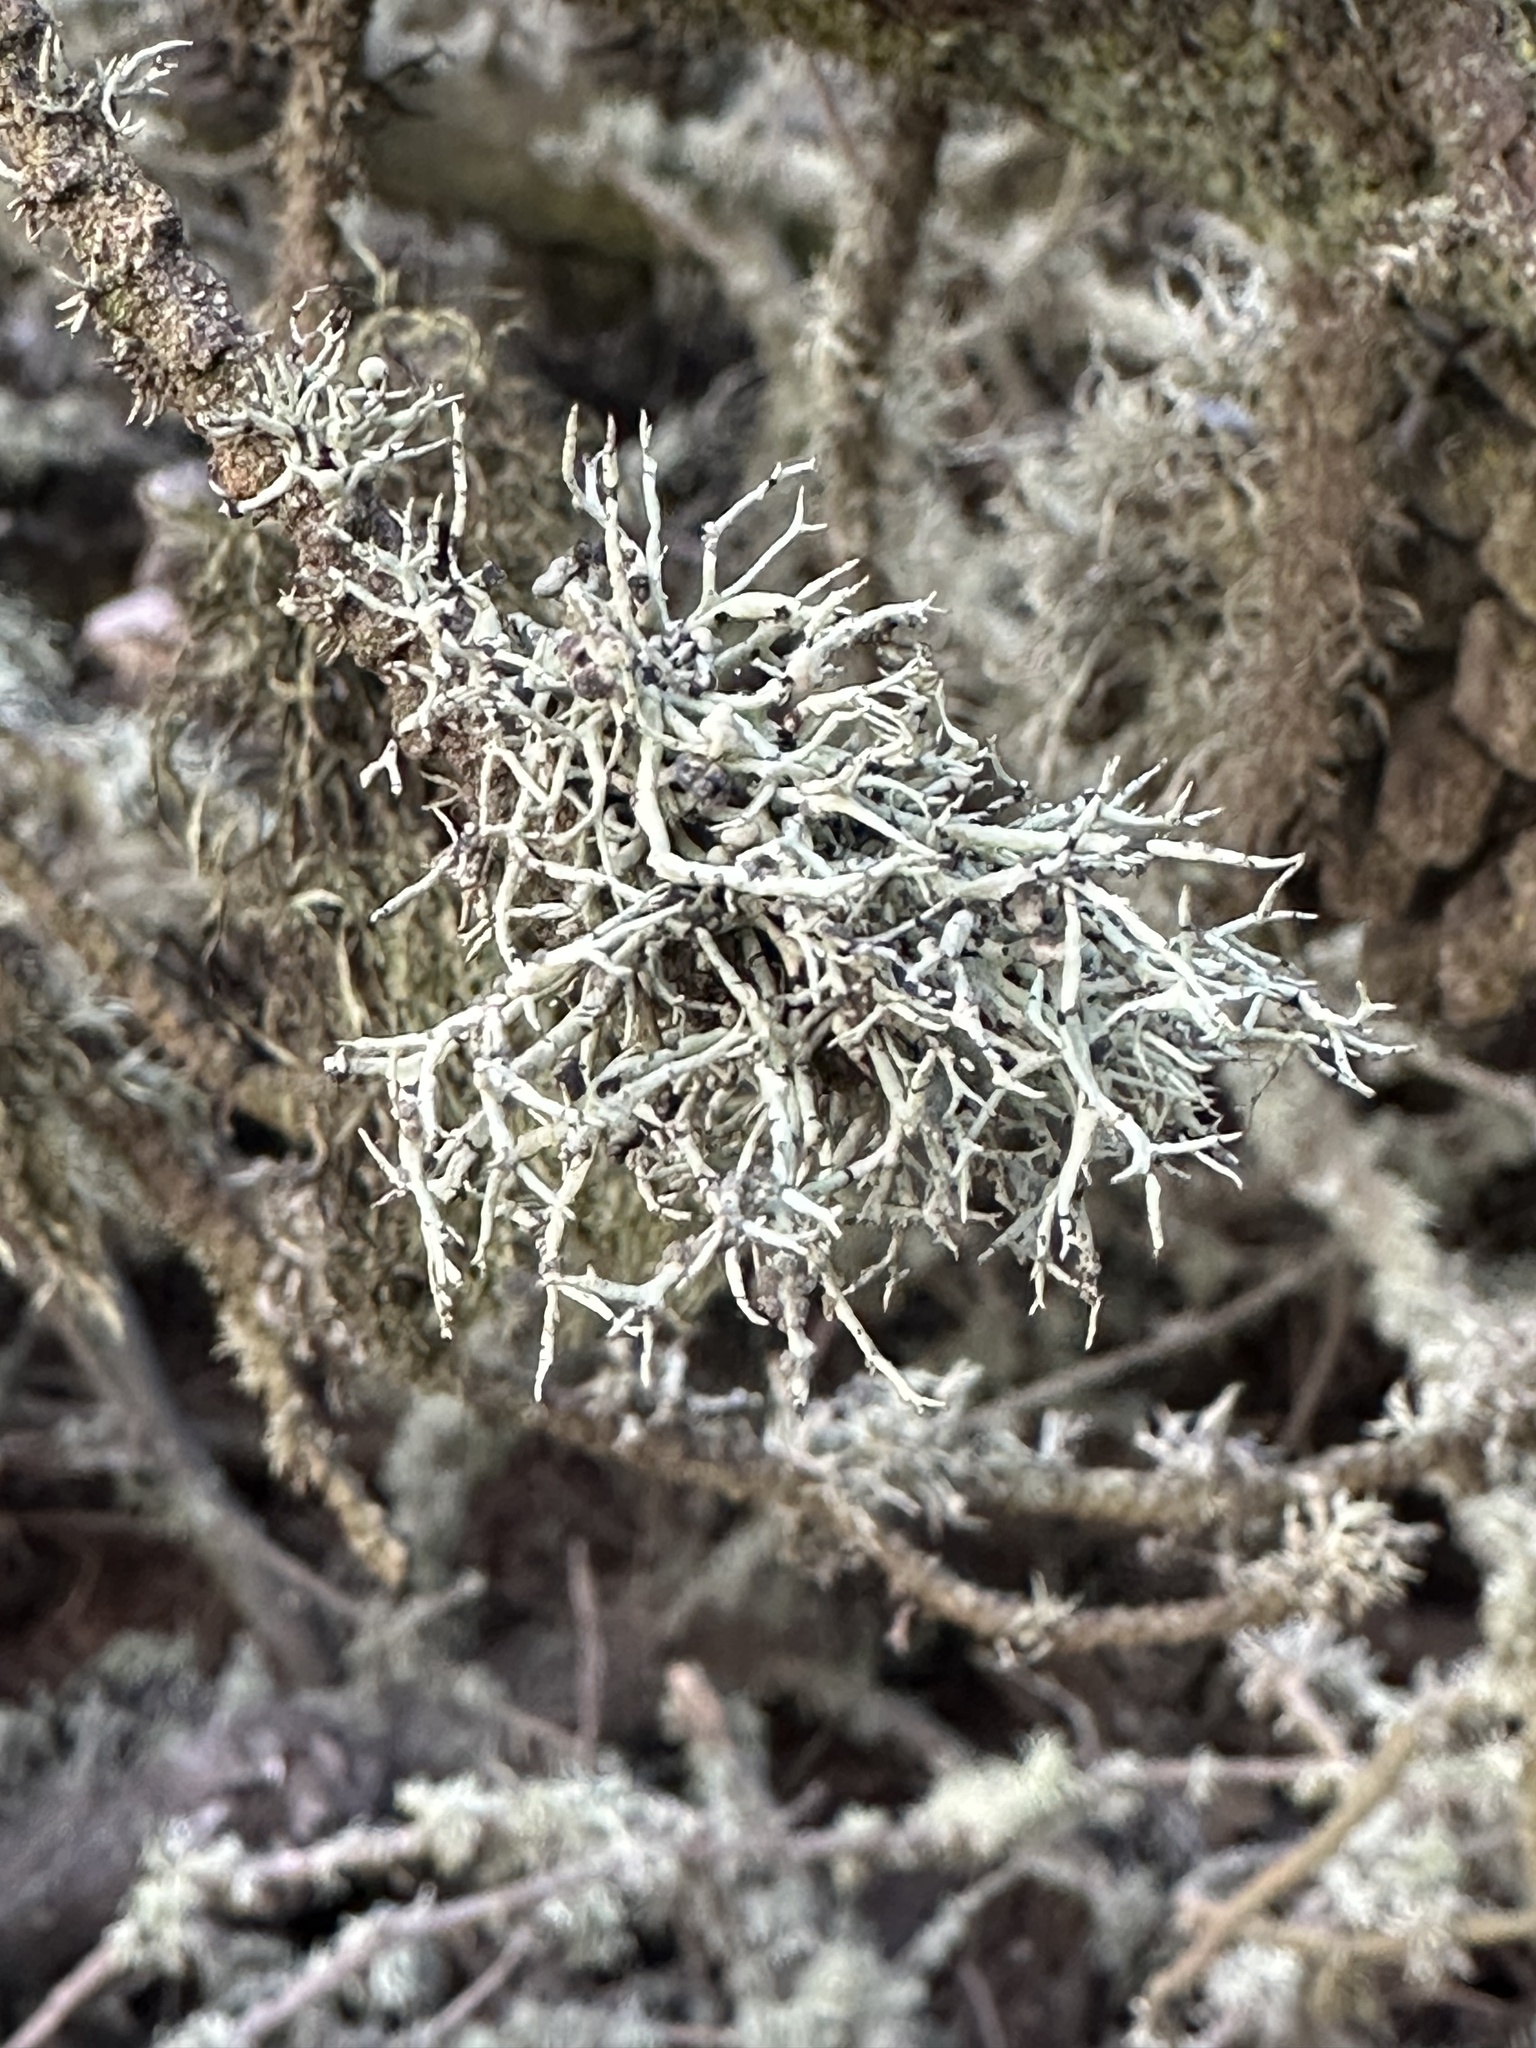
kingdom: Fungi
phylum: Ascomycota
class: Lecanoromycetes
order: Lecanorales
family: Ramalinaceae
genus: Niebla
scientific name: Niebla cephalota
